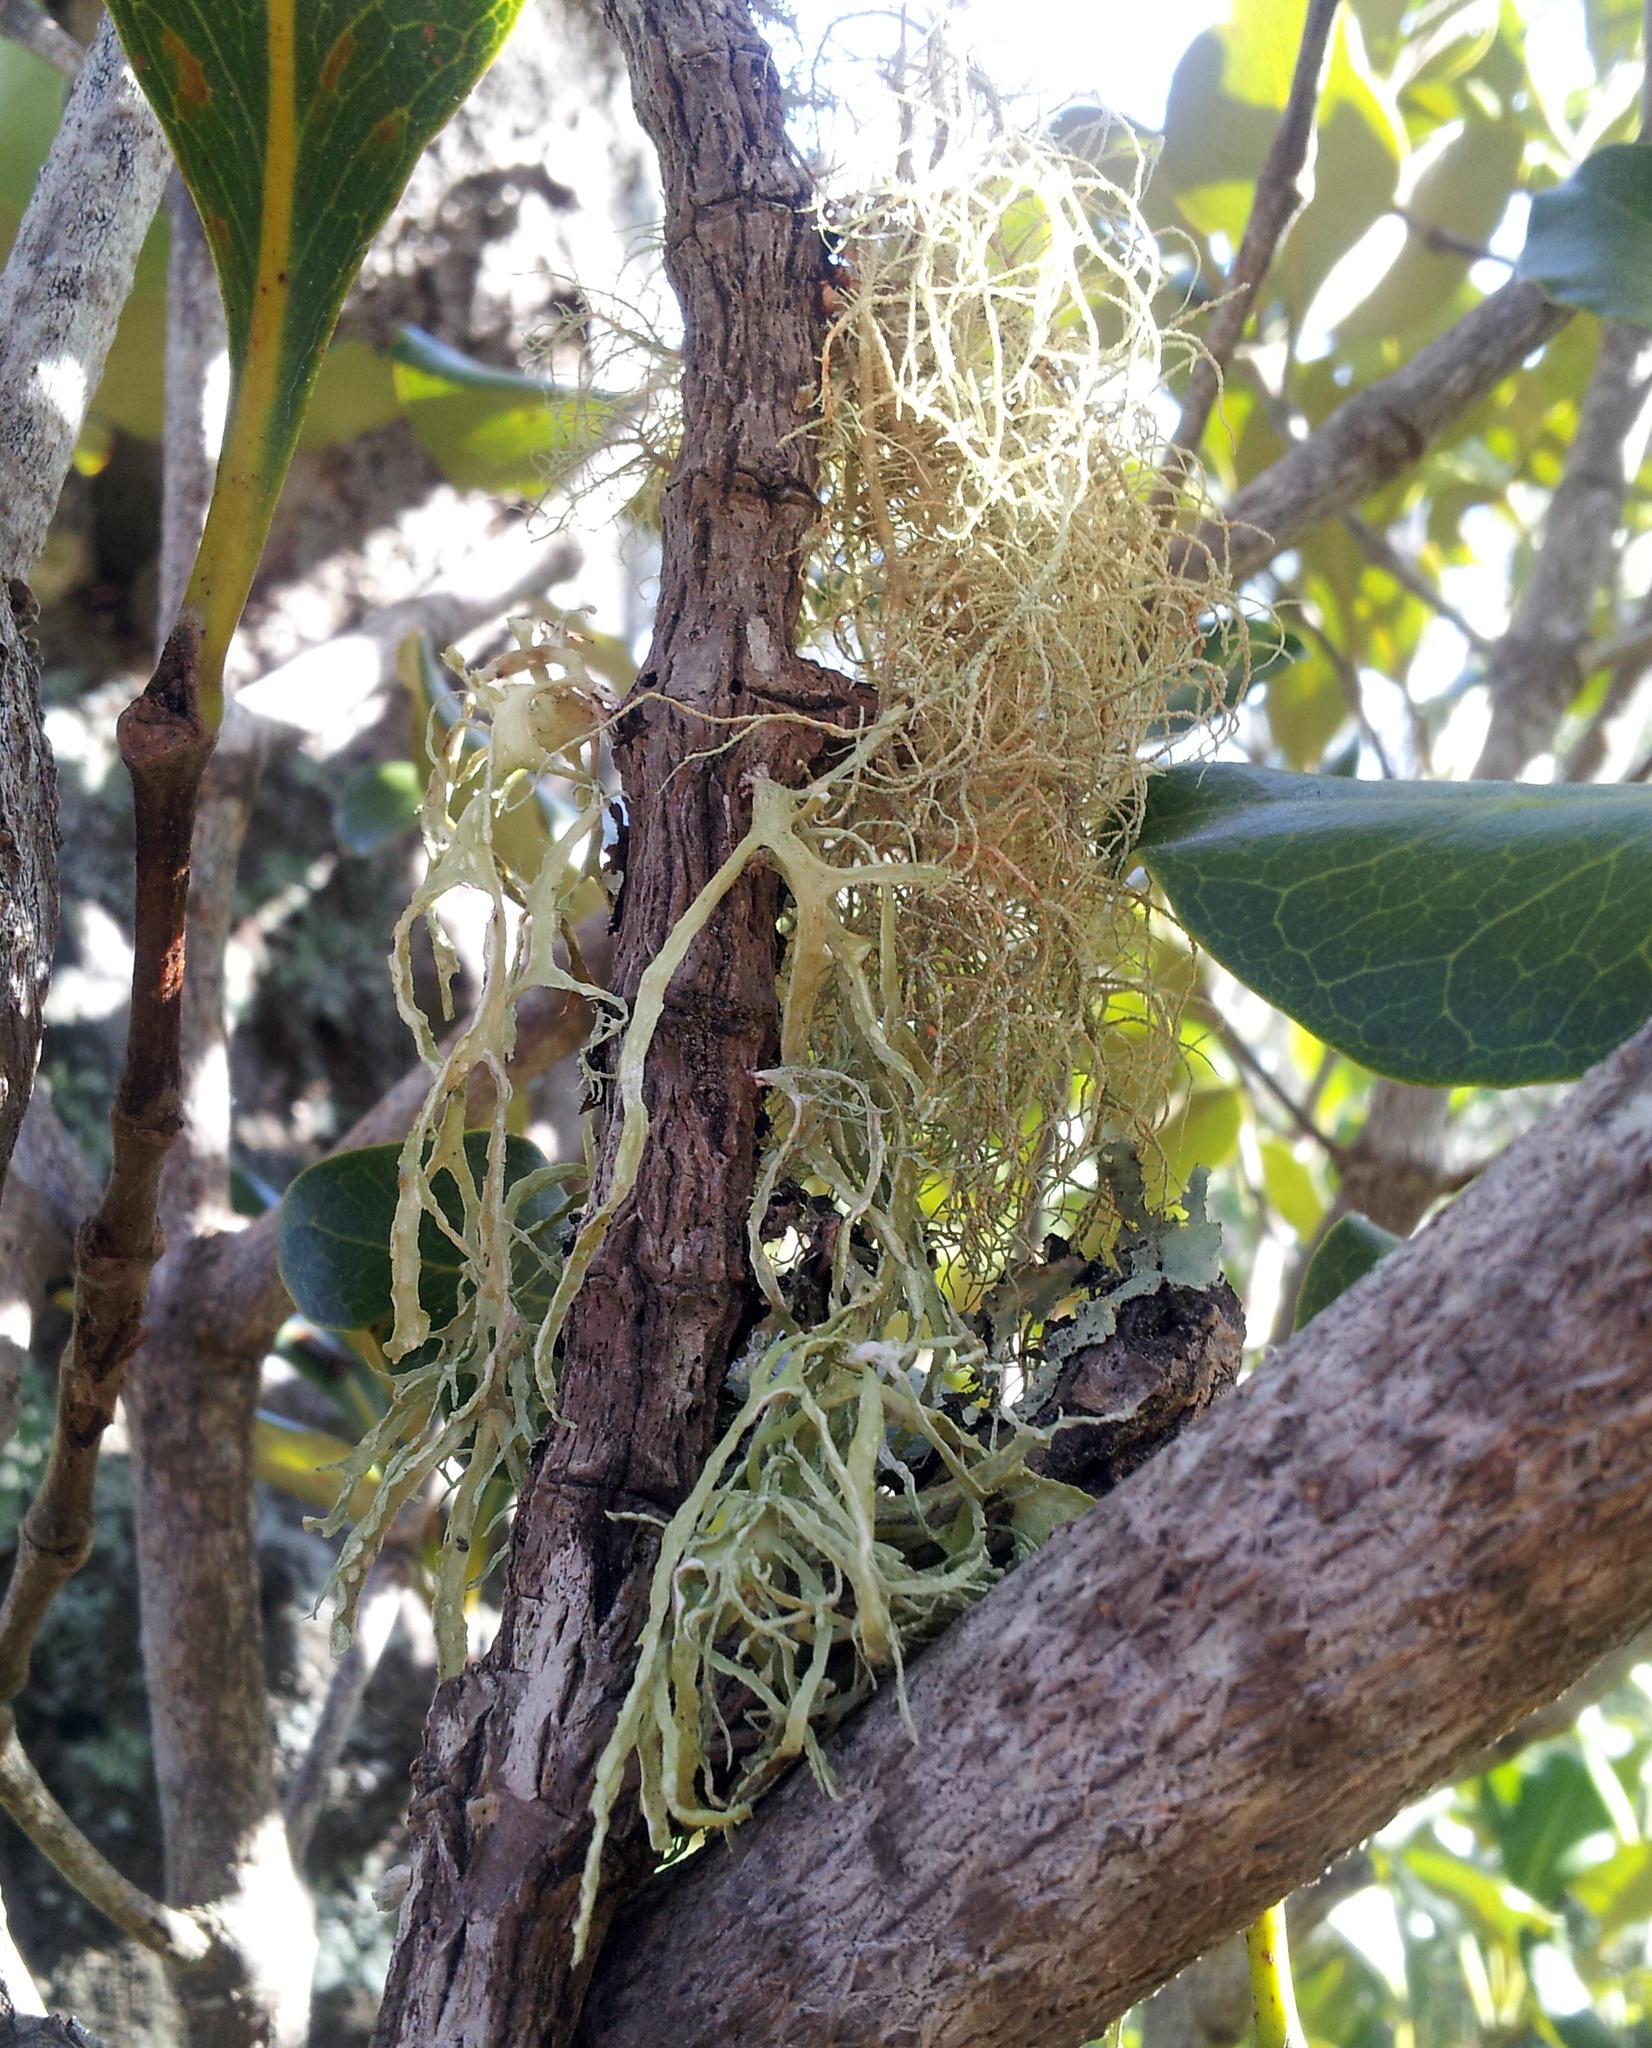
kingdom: Fungi
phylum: Ascomycota
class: Lecanoromycetes
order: Lecanorales
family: Ramalinaceae
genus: Ramalina
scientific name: Ramalina pacifica
